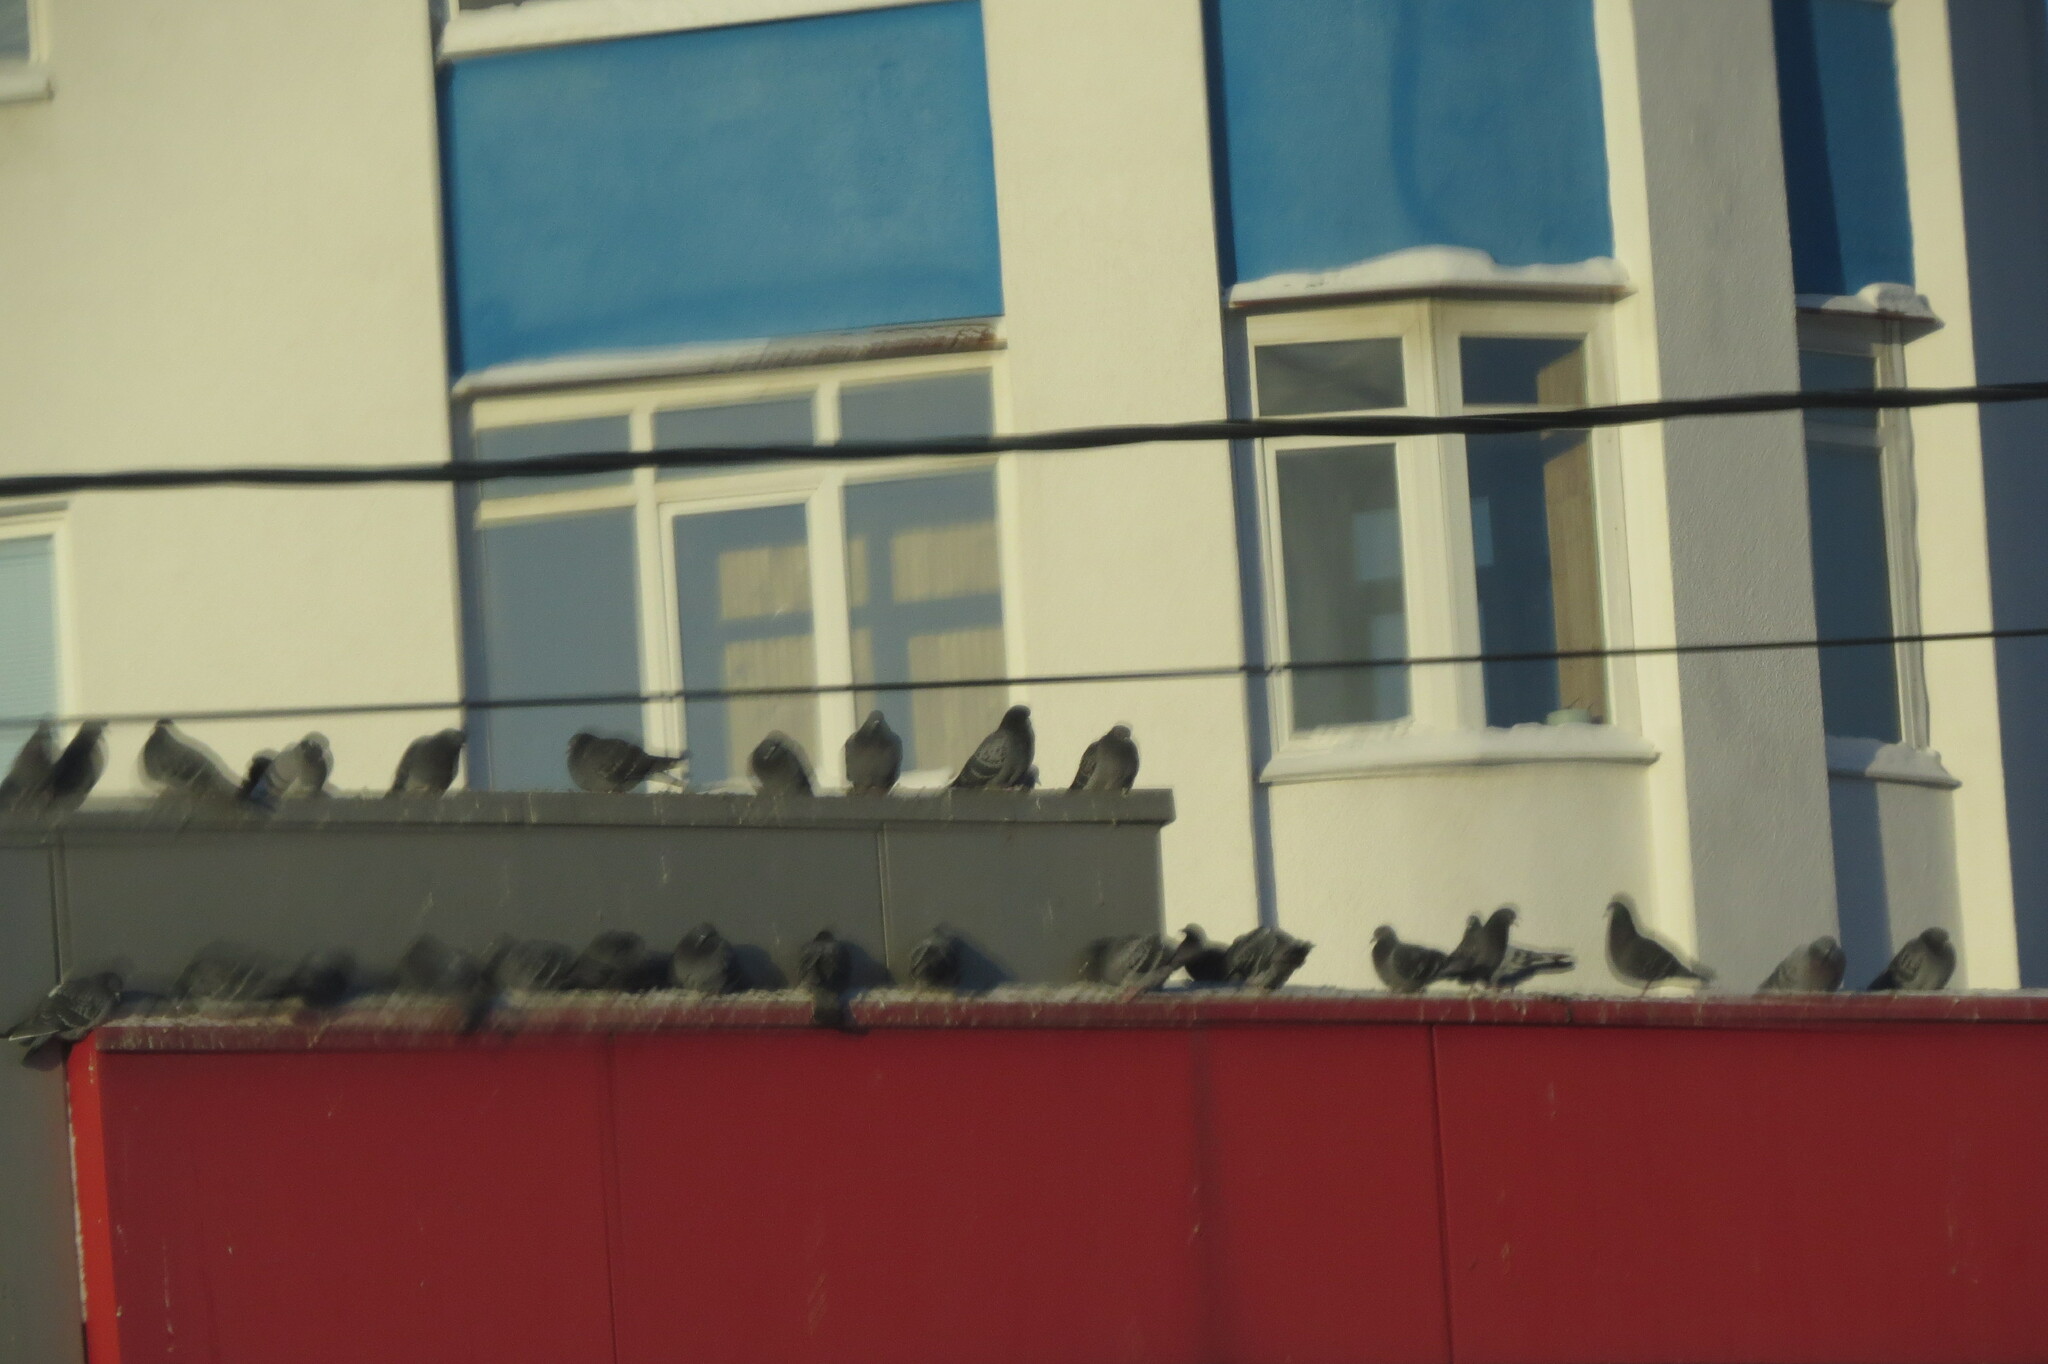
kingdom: Animalia
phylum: Chordata
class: Aves
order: Columbiformes
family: Columbidae
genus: Columba
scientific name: Columba livia
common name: Rock pigeon
